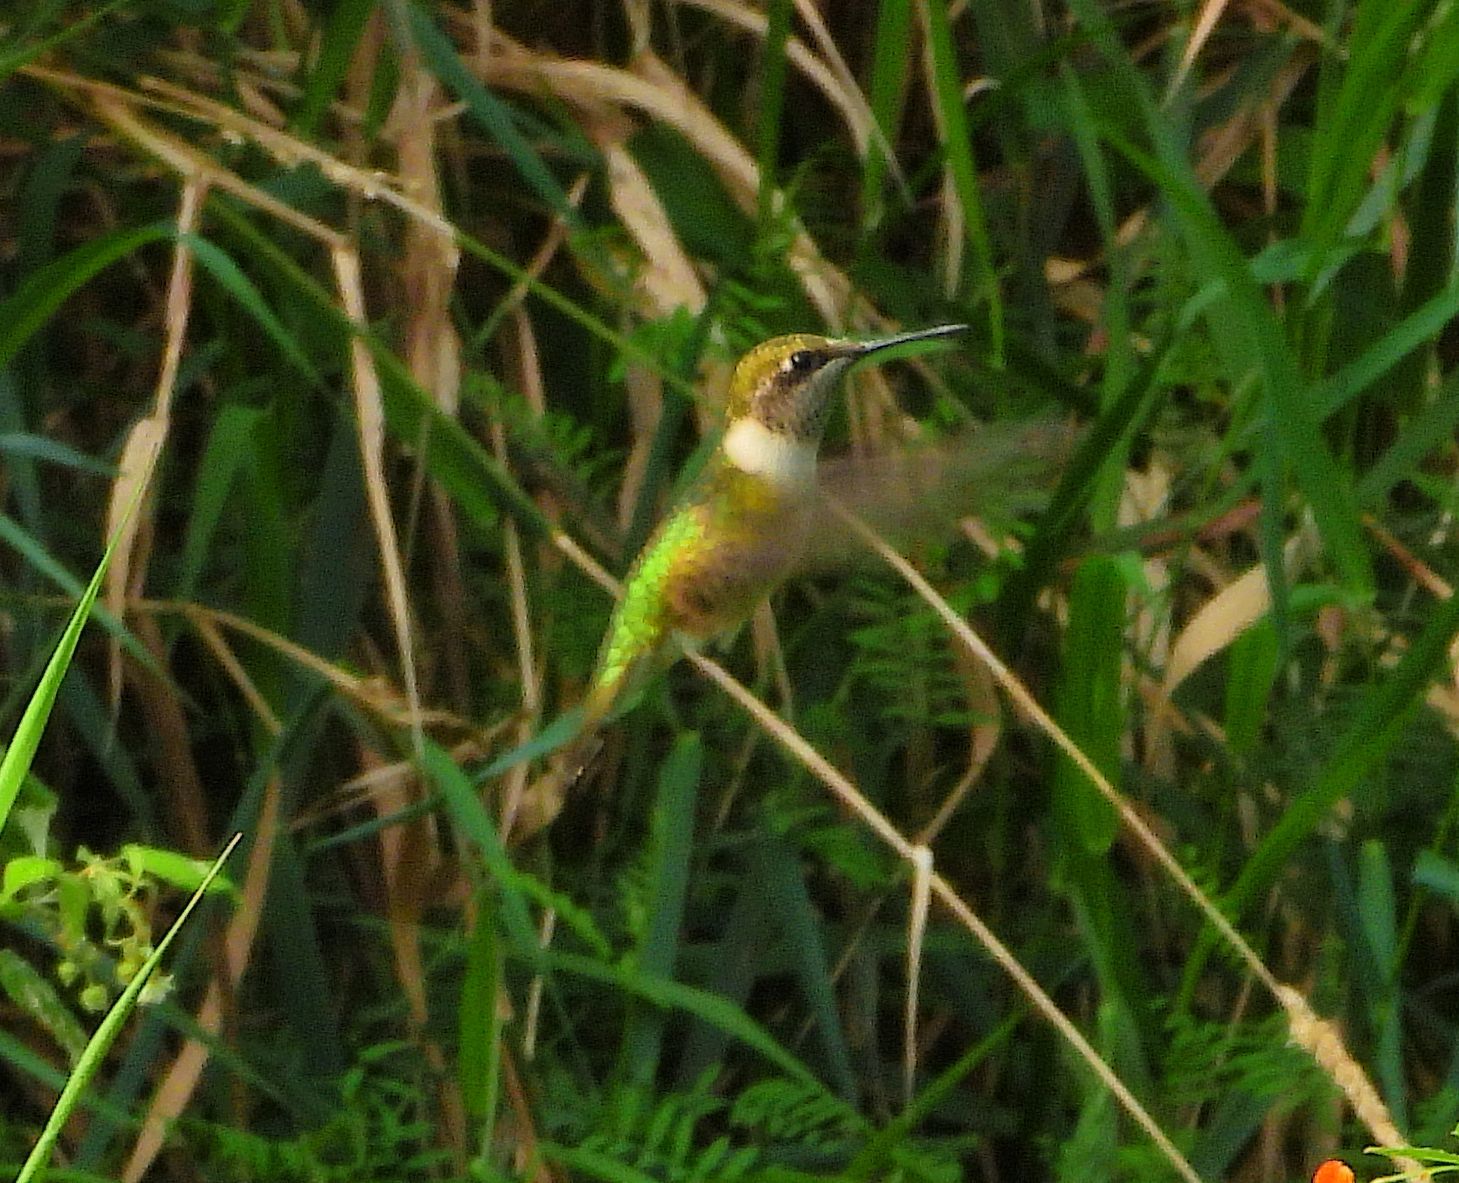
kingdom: Animalia
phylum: Chordata
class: Aves
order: Apodiformes
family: Trochilidae
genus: Archilochus
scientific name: Archilochus colubris
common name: Ruby-throated hummingbird
